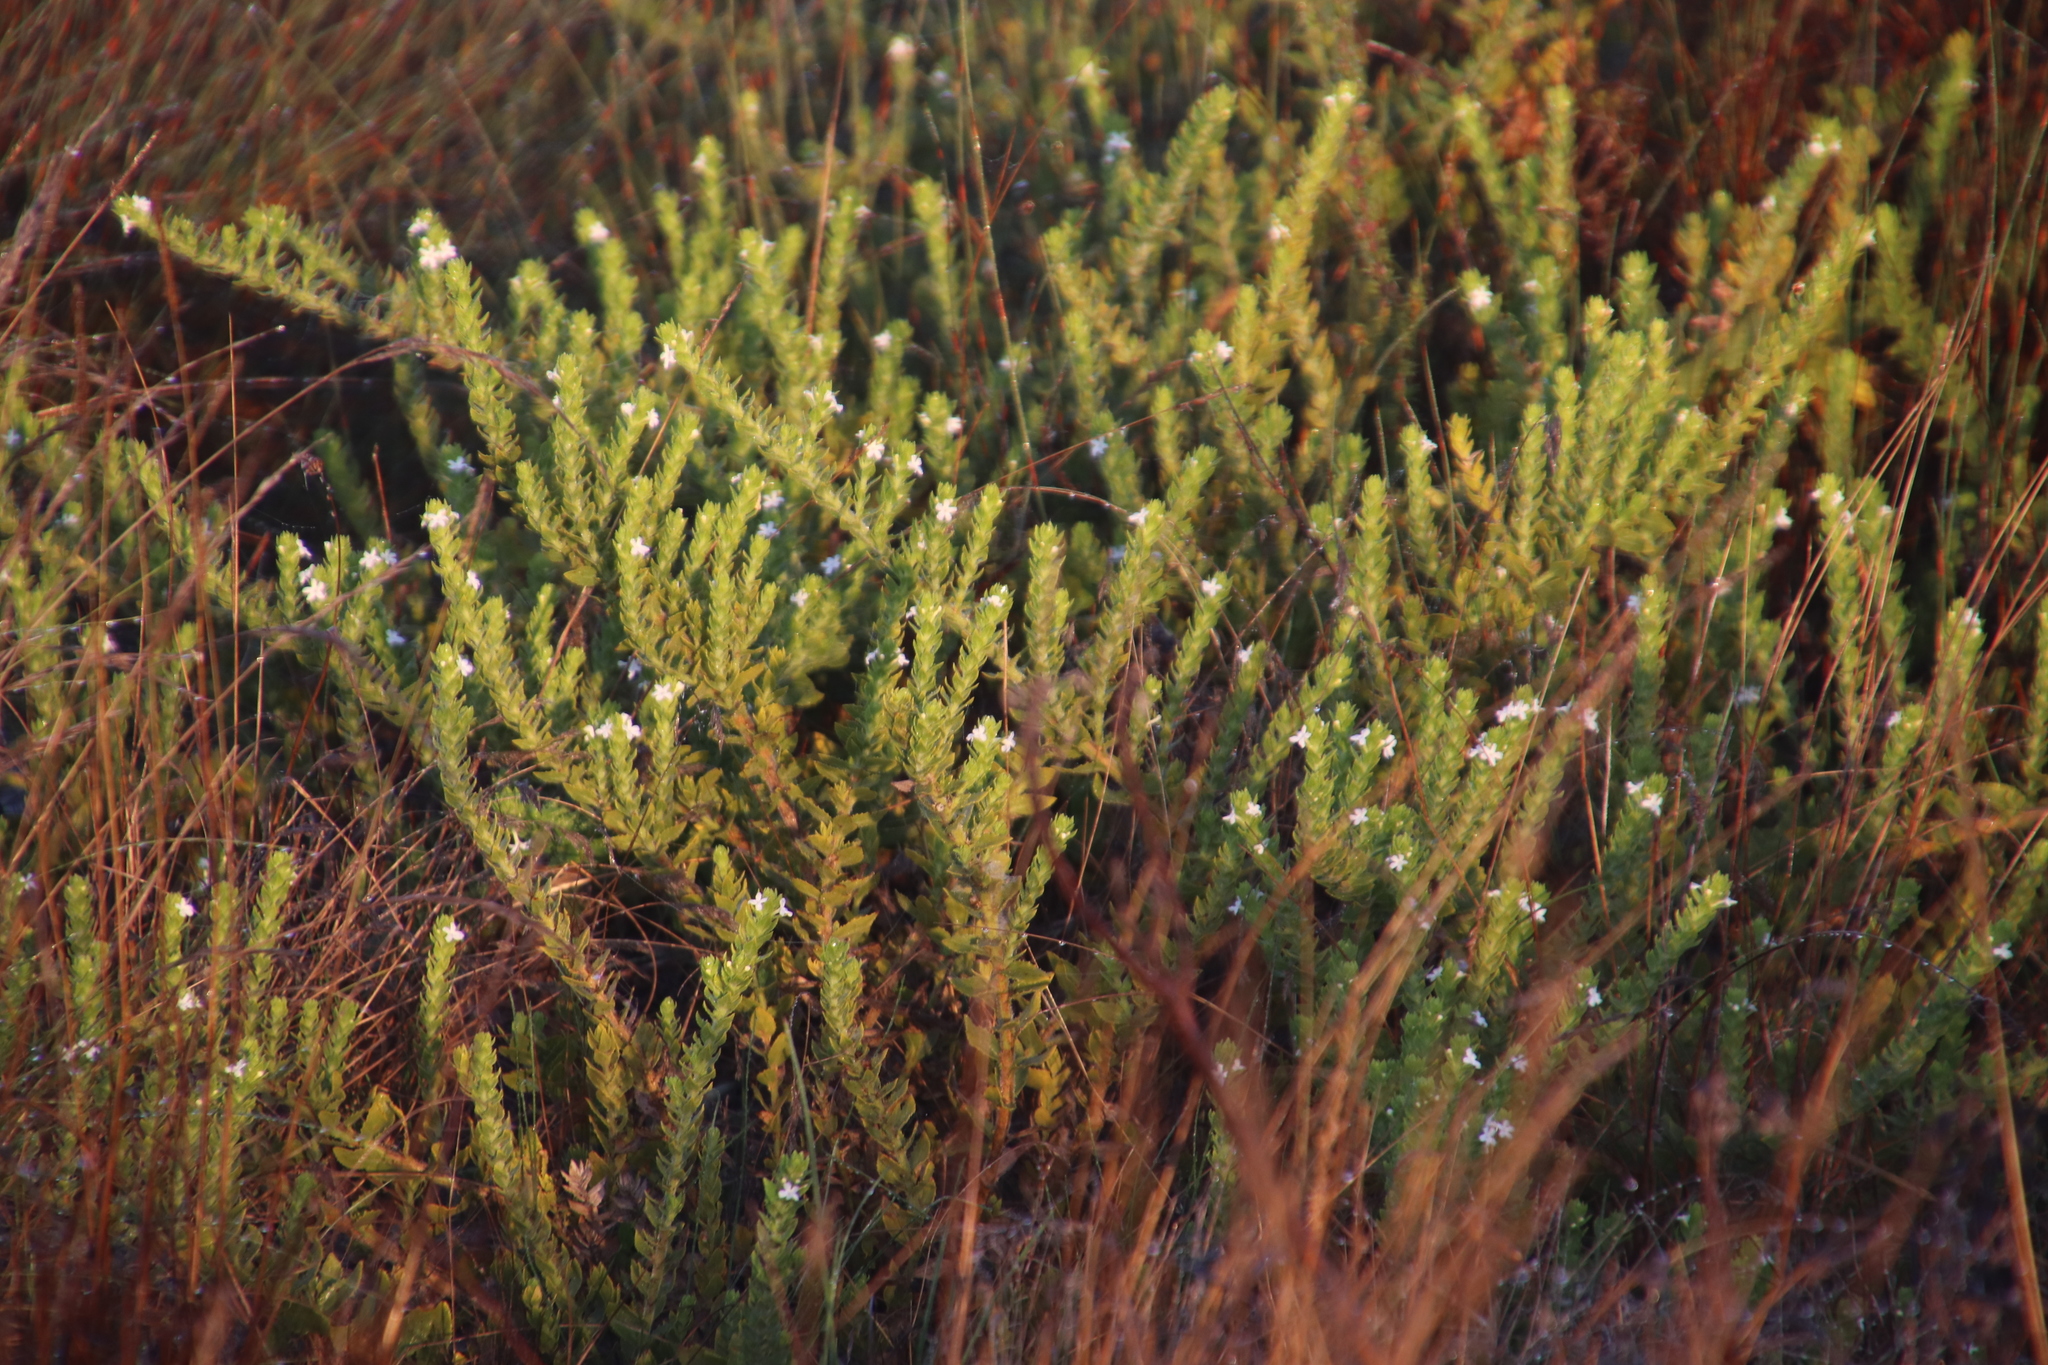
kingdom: Plantae
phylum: Tracheophyta
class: Magnoliopsida
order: Lamiales
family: Scrophulariaceae
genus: Oftia
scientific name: Oftia africana
